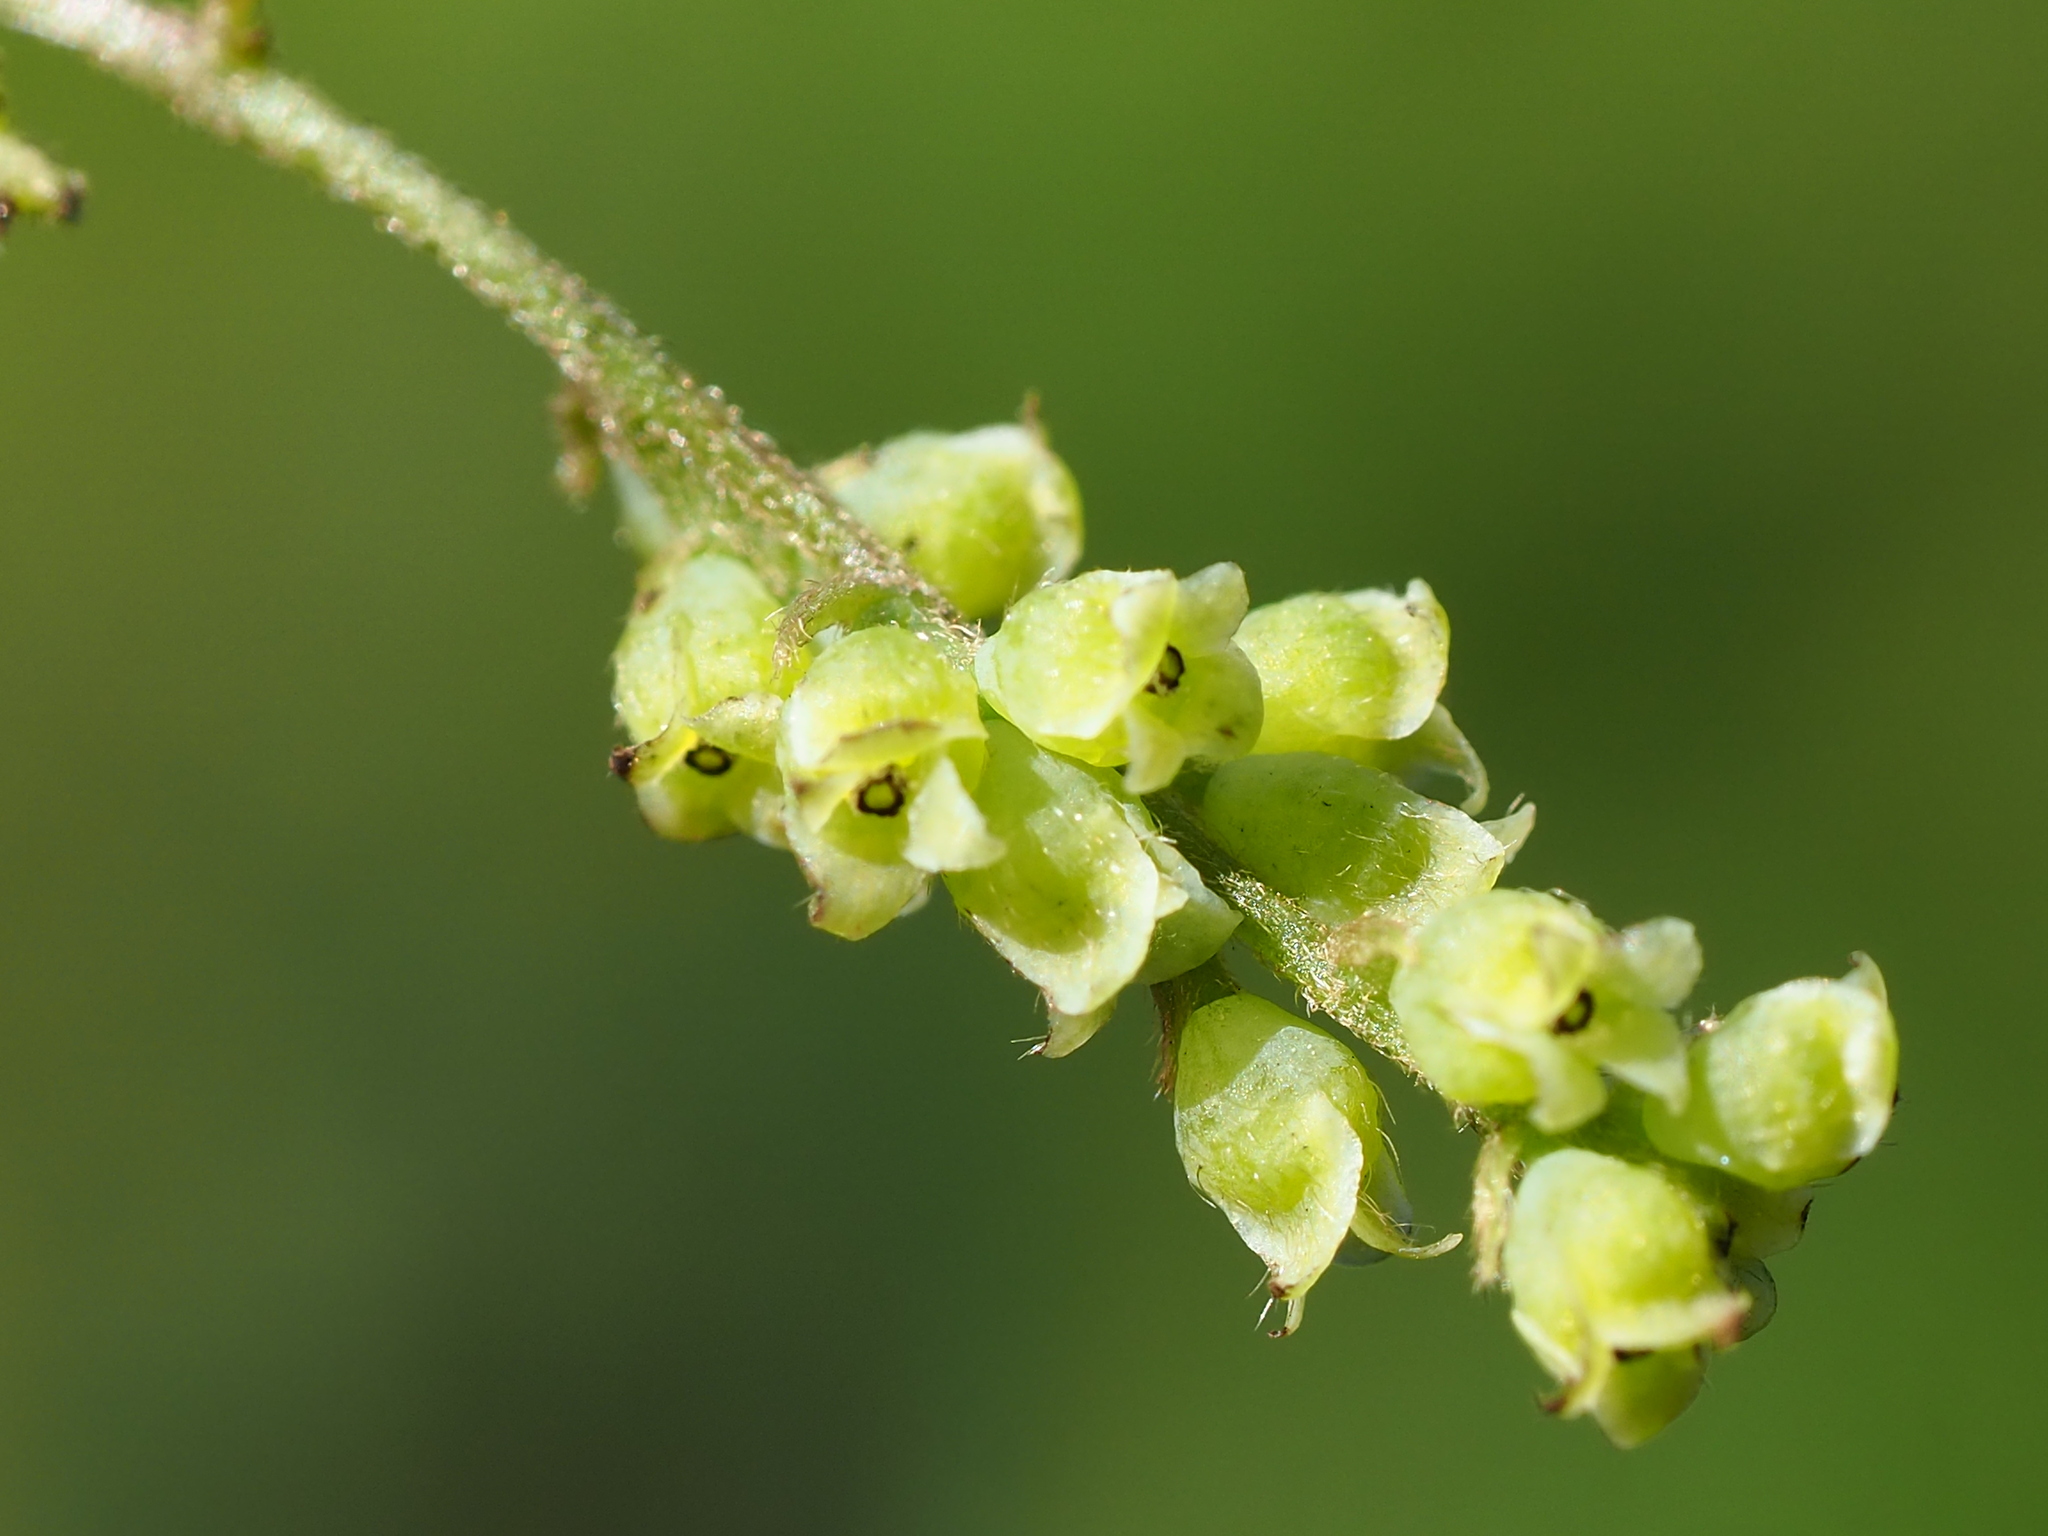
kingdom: Plantae
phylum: Tracheophyta
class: Magnoliopsida
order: Ranunculales
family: Menispermaceae
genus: Cyclea
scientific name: Cyclea ochiaiana
